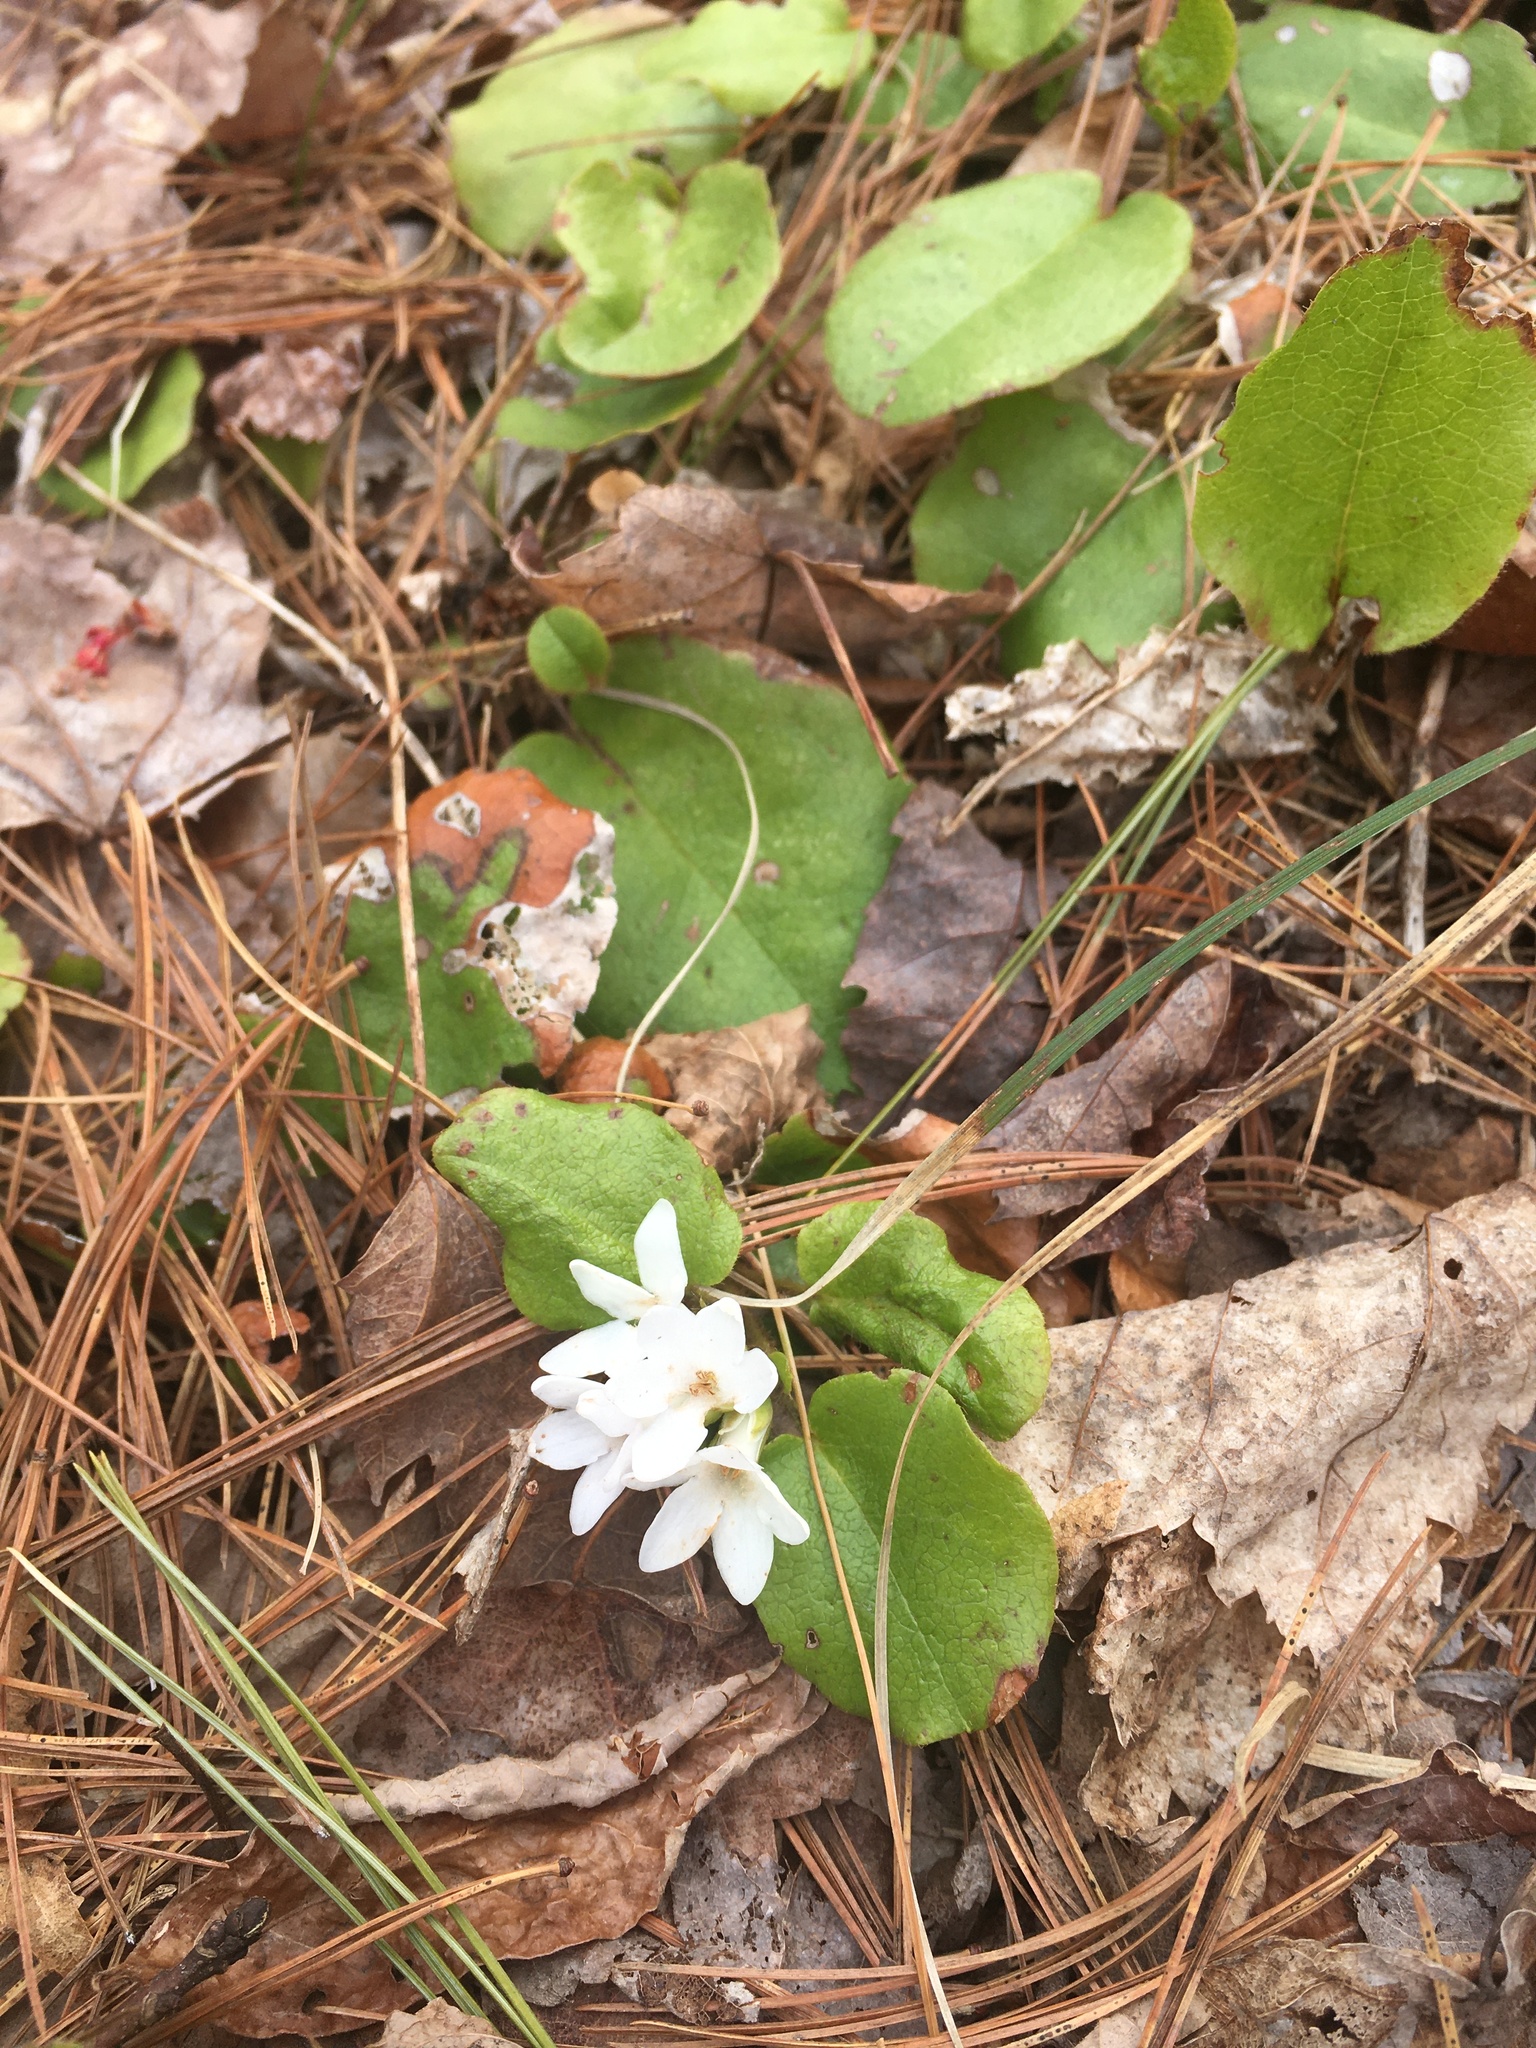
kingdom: Plantae
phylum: Tracheophyta
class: Magnoliopsida
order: Ericales
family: Ericaceae
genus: Epigaea
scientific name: Epigaea repens
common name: Gravelroot
